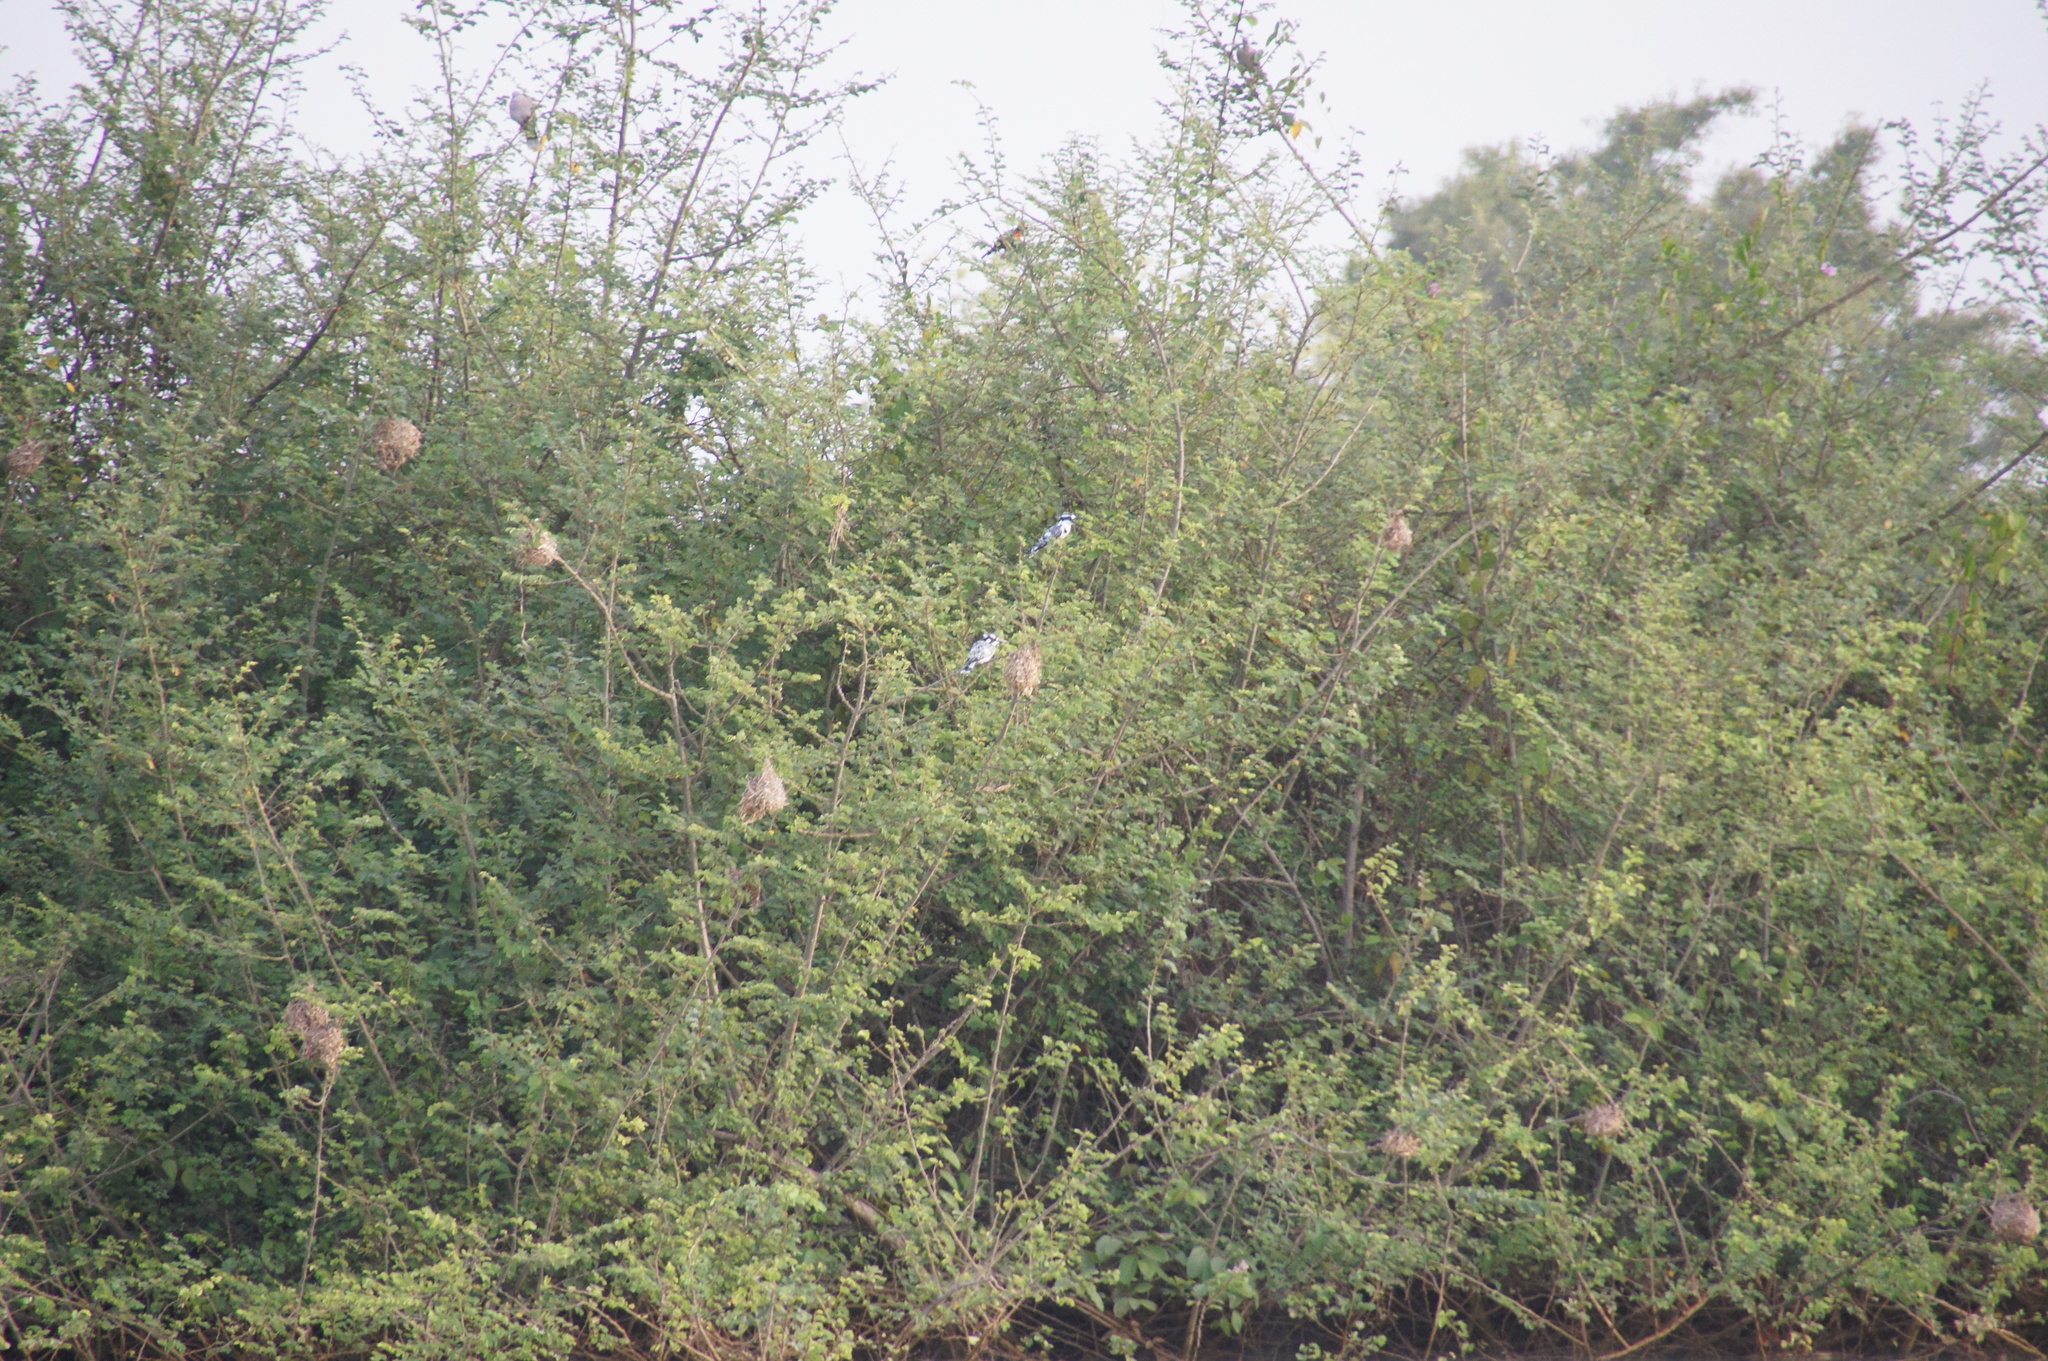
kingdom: Animalia
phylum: Chordata
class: Aves
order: Coraciiformes
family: Alcedinidae
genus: Ceryle
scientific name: Ceryle rudis
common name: Pied kingfisher
